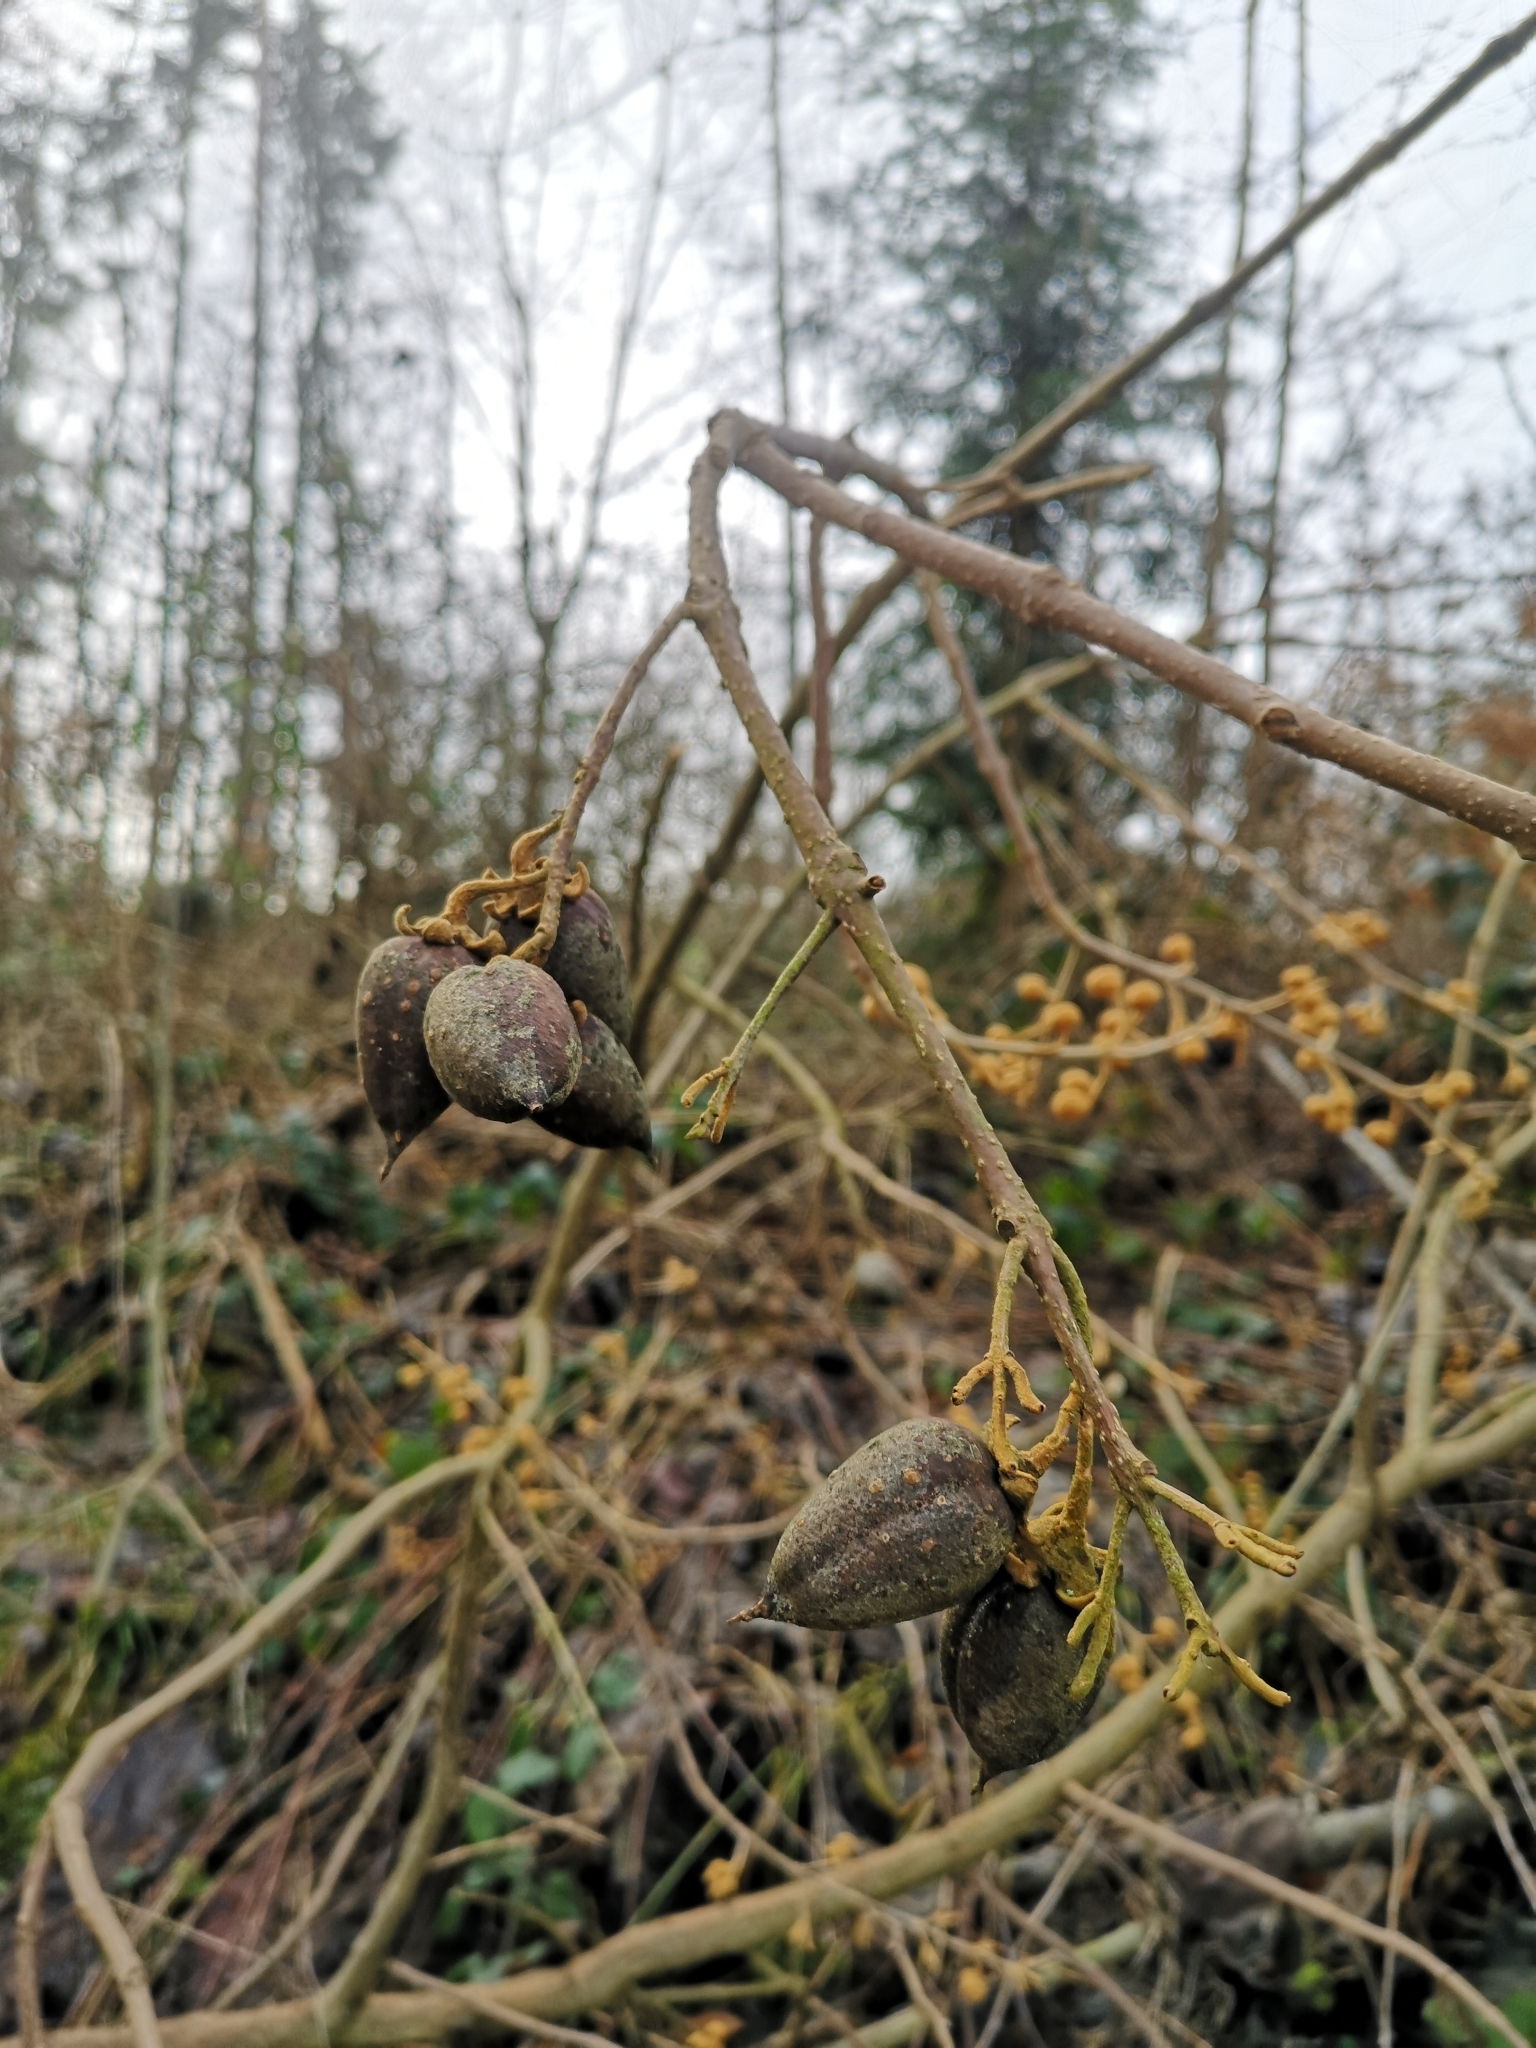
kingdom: Plantae
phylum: Tracheophyta
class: Magnoliopsida
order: Lamiales
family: Paulowniaceae
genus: Paulownia
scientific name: Paulownia tomentosa
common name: Foxglove-tree
